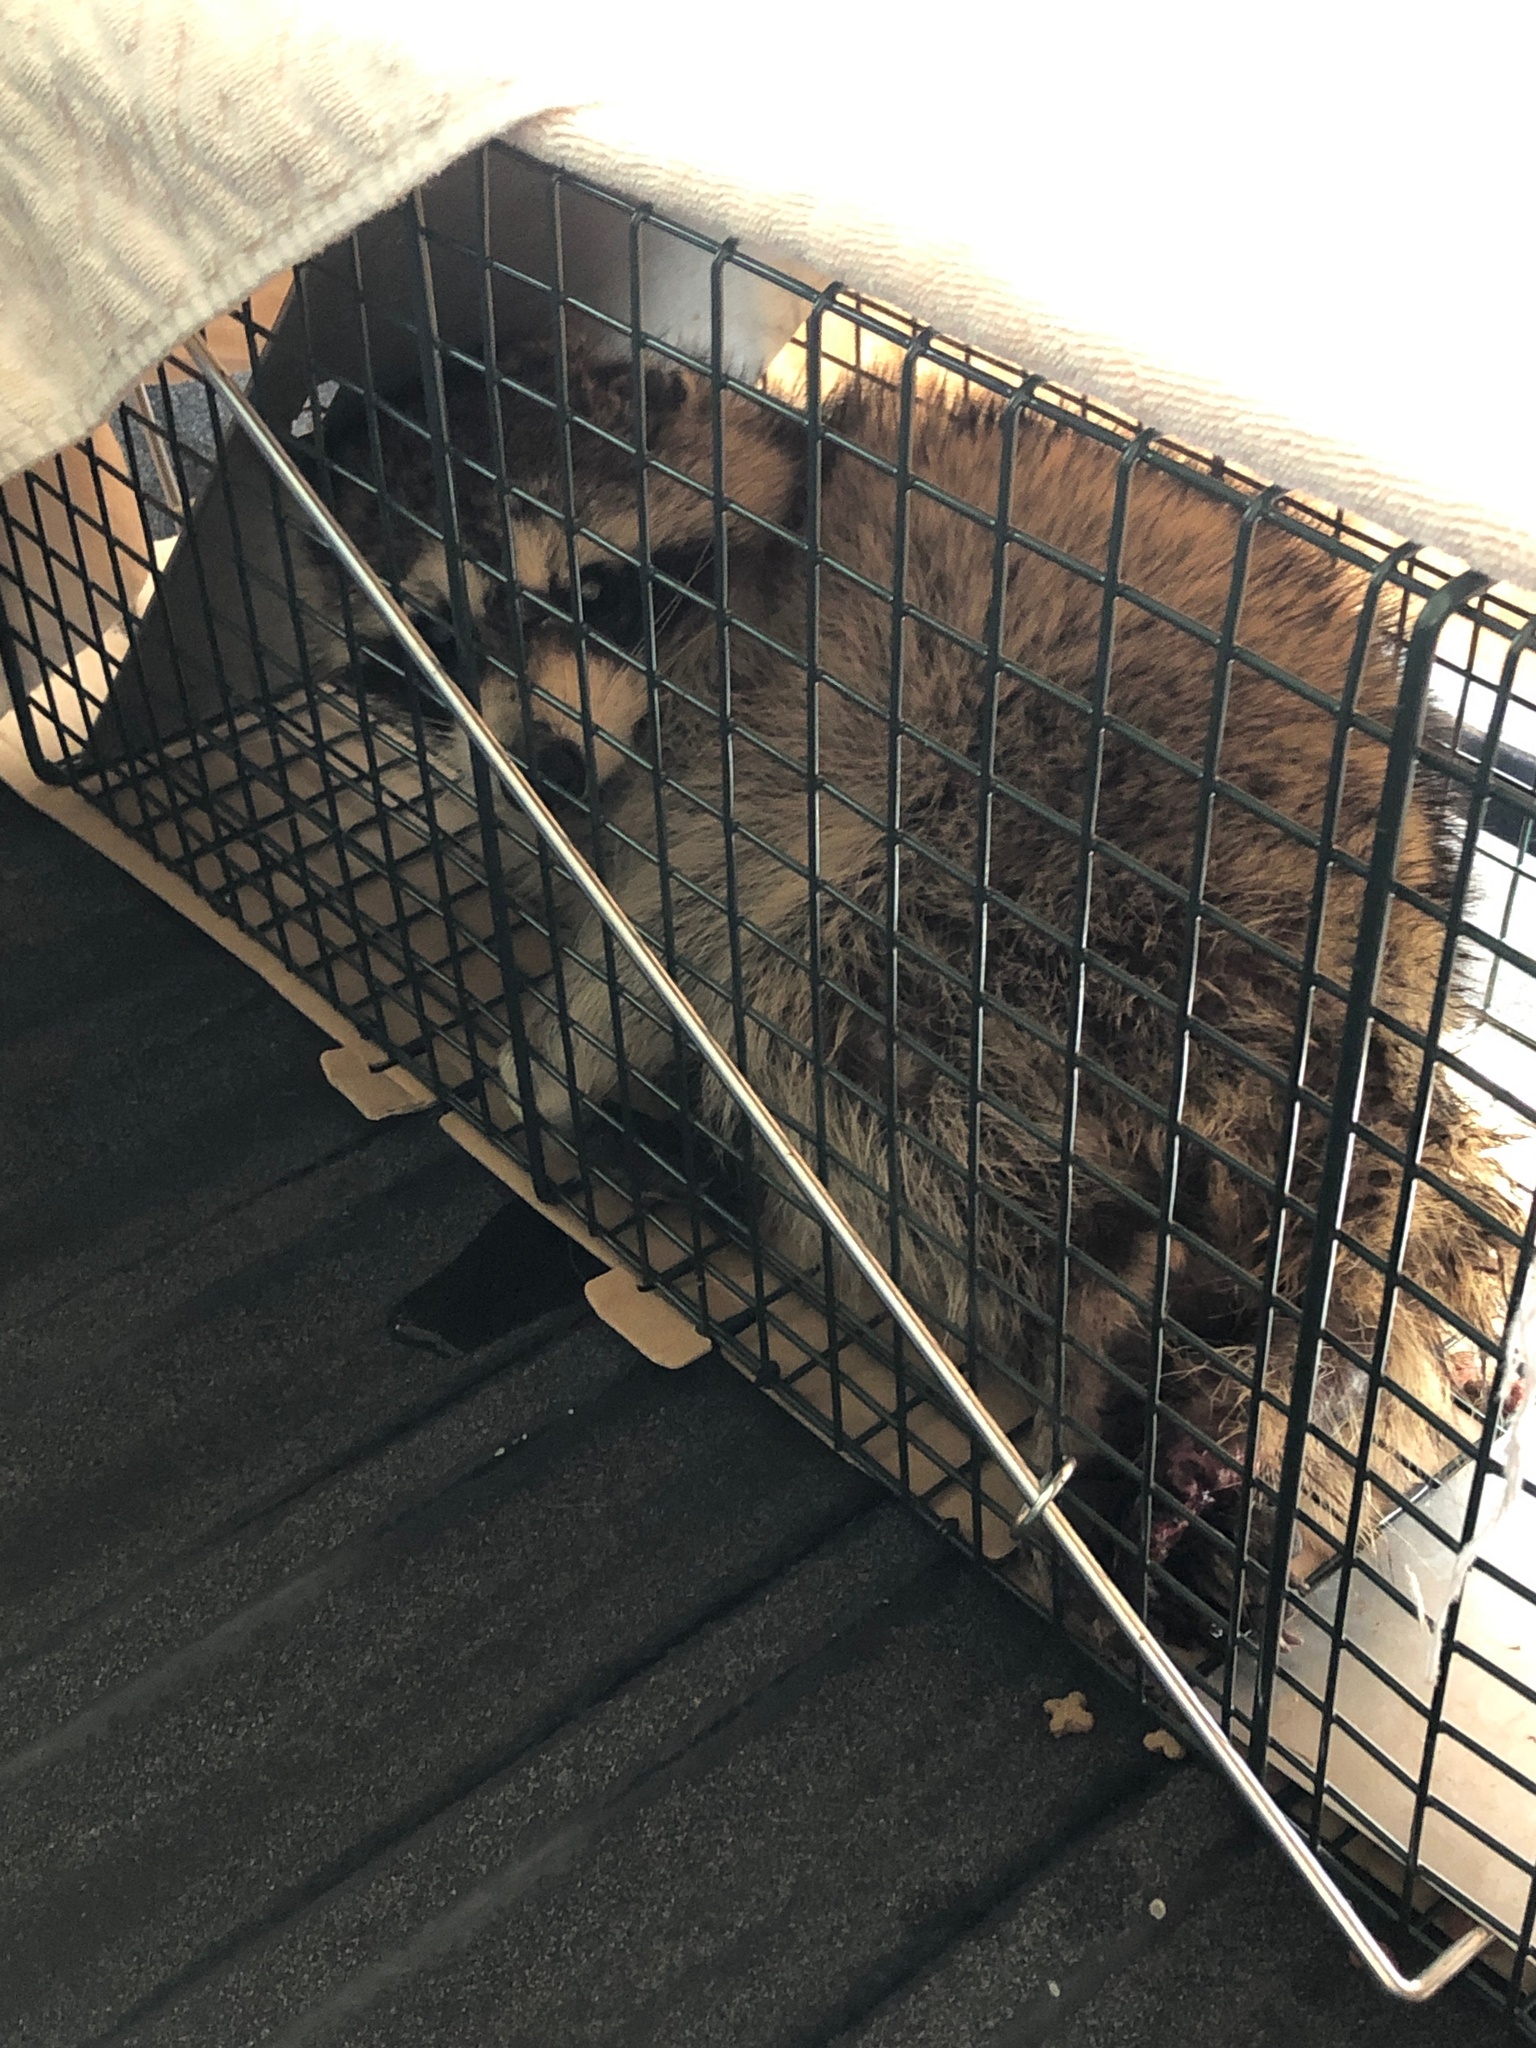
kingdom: Animalia
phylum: Chordata
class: Mammalia
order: Carnivora
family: Procyonidae
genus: Procyon
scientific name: Procyon lotor
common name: Raccoon
